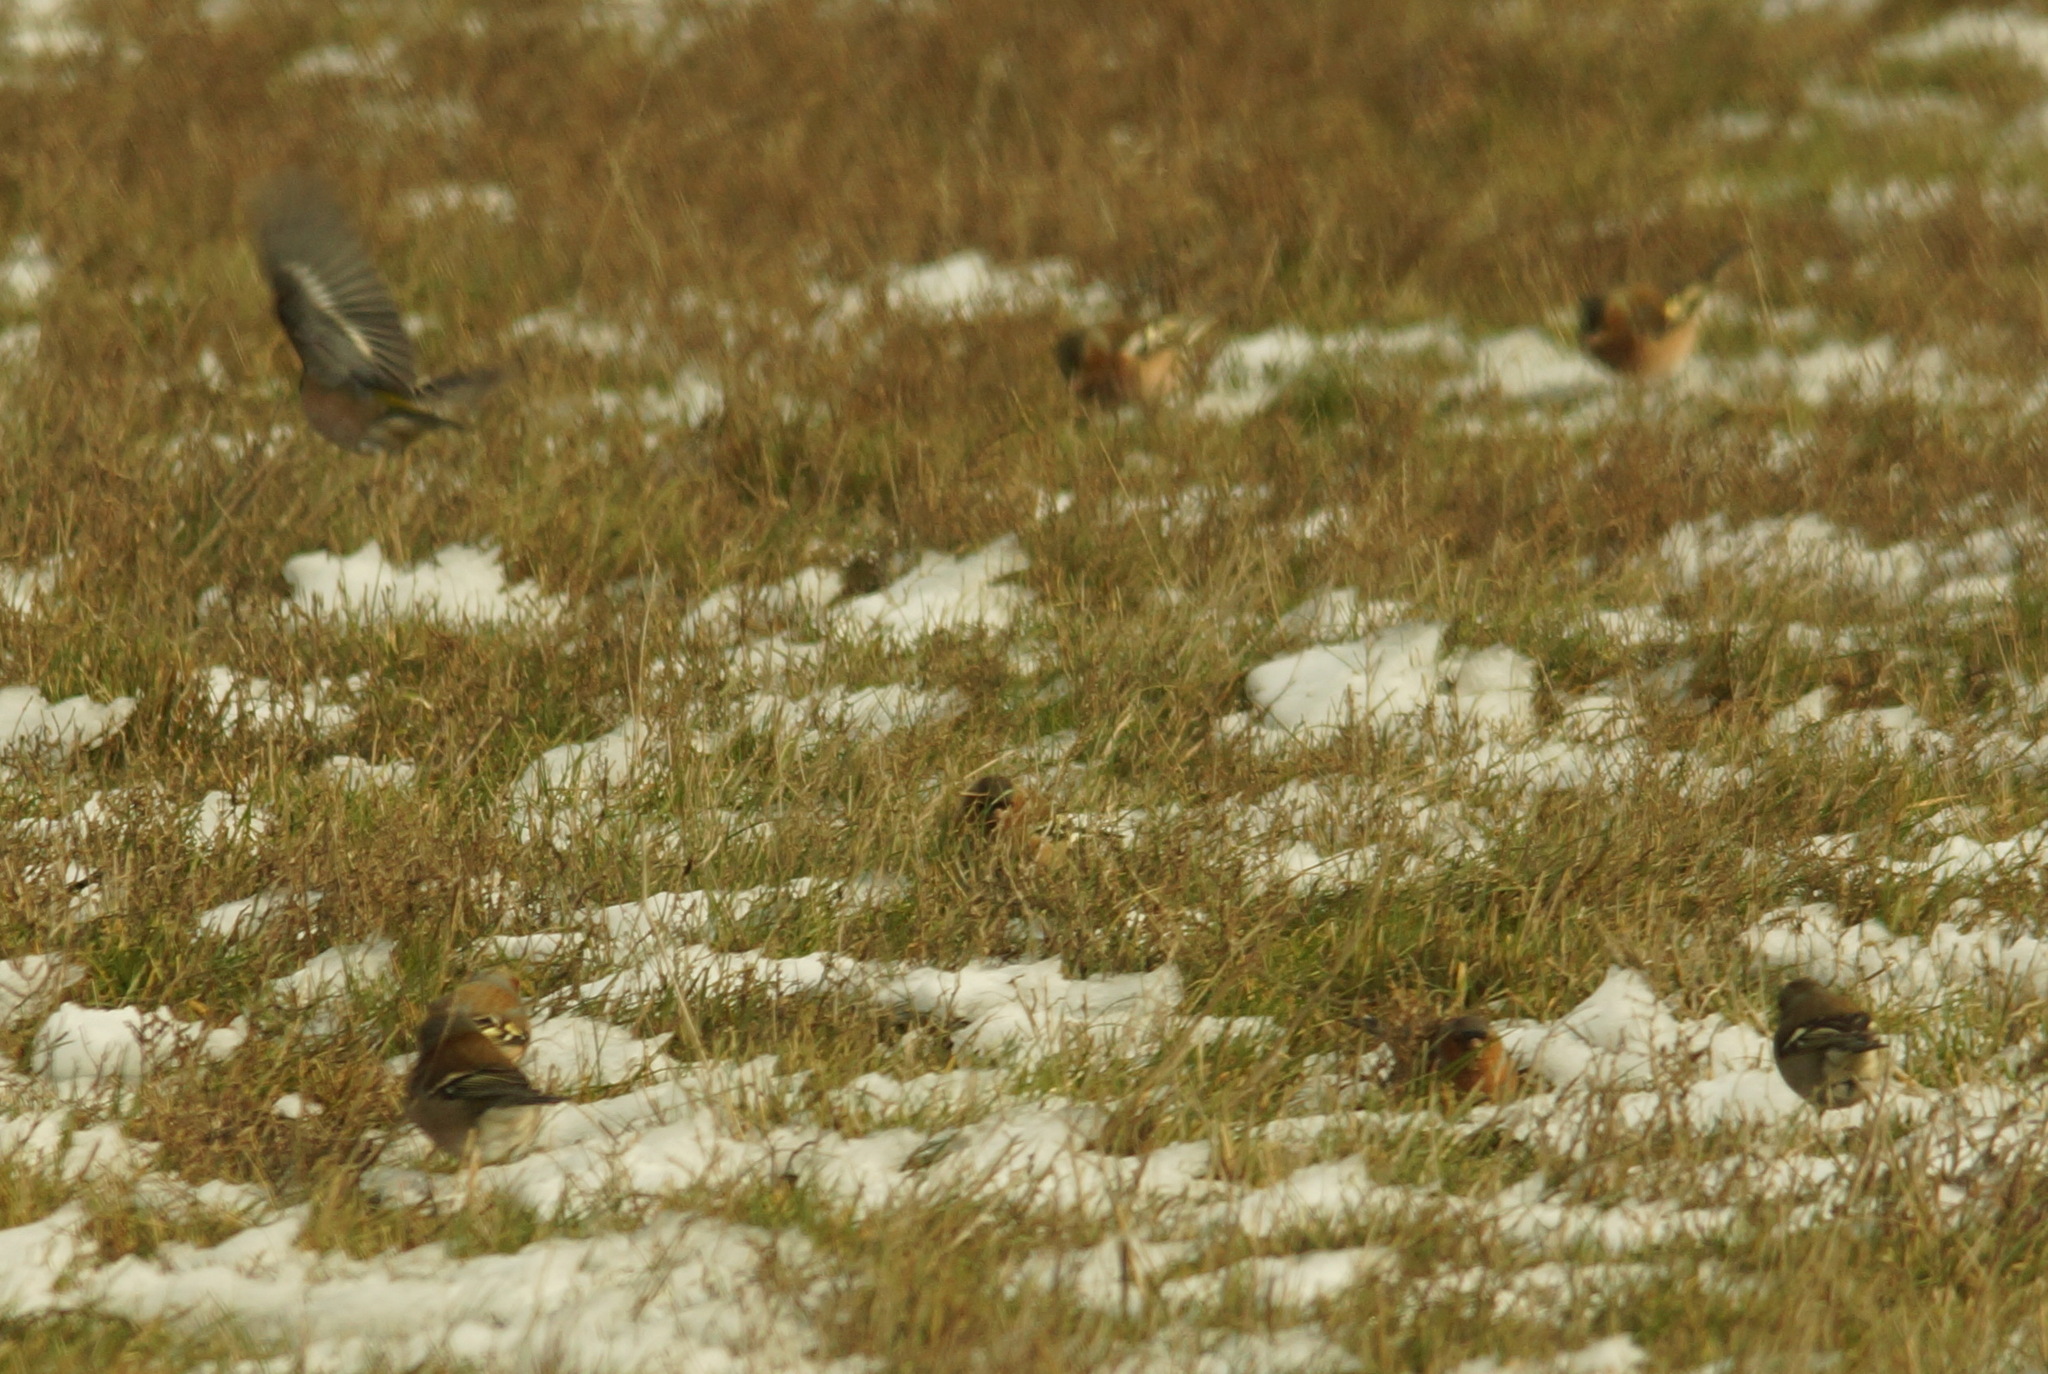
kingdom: Animalia
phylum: Chordata
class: Aves
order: Passeriformes
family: Fringillidae
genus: Fringilla
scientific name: Fringilla coelebs
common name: Common chaffinch
